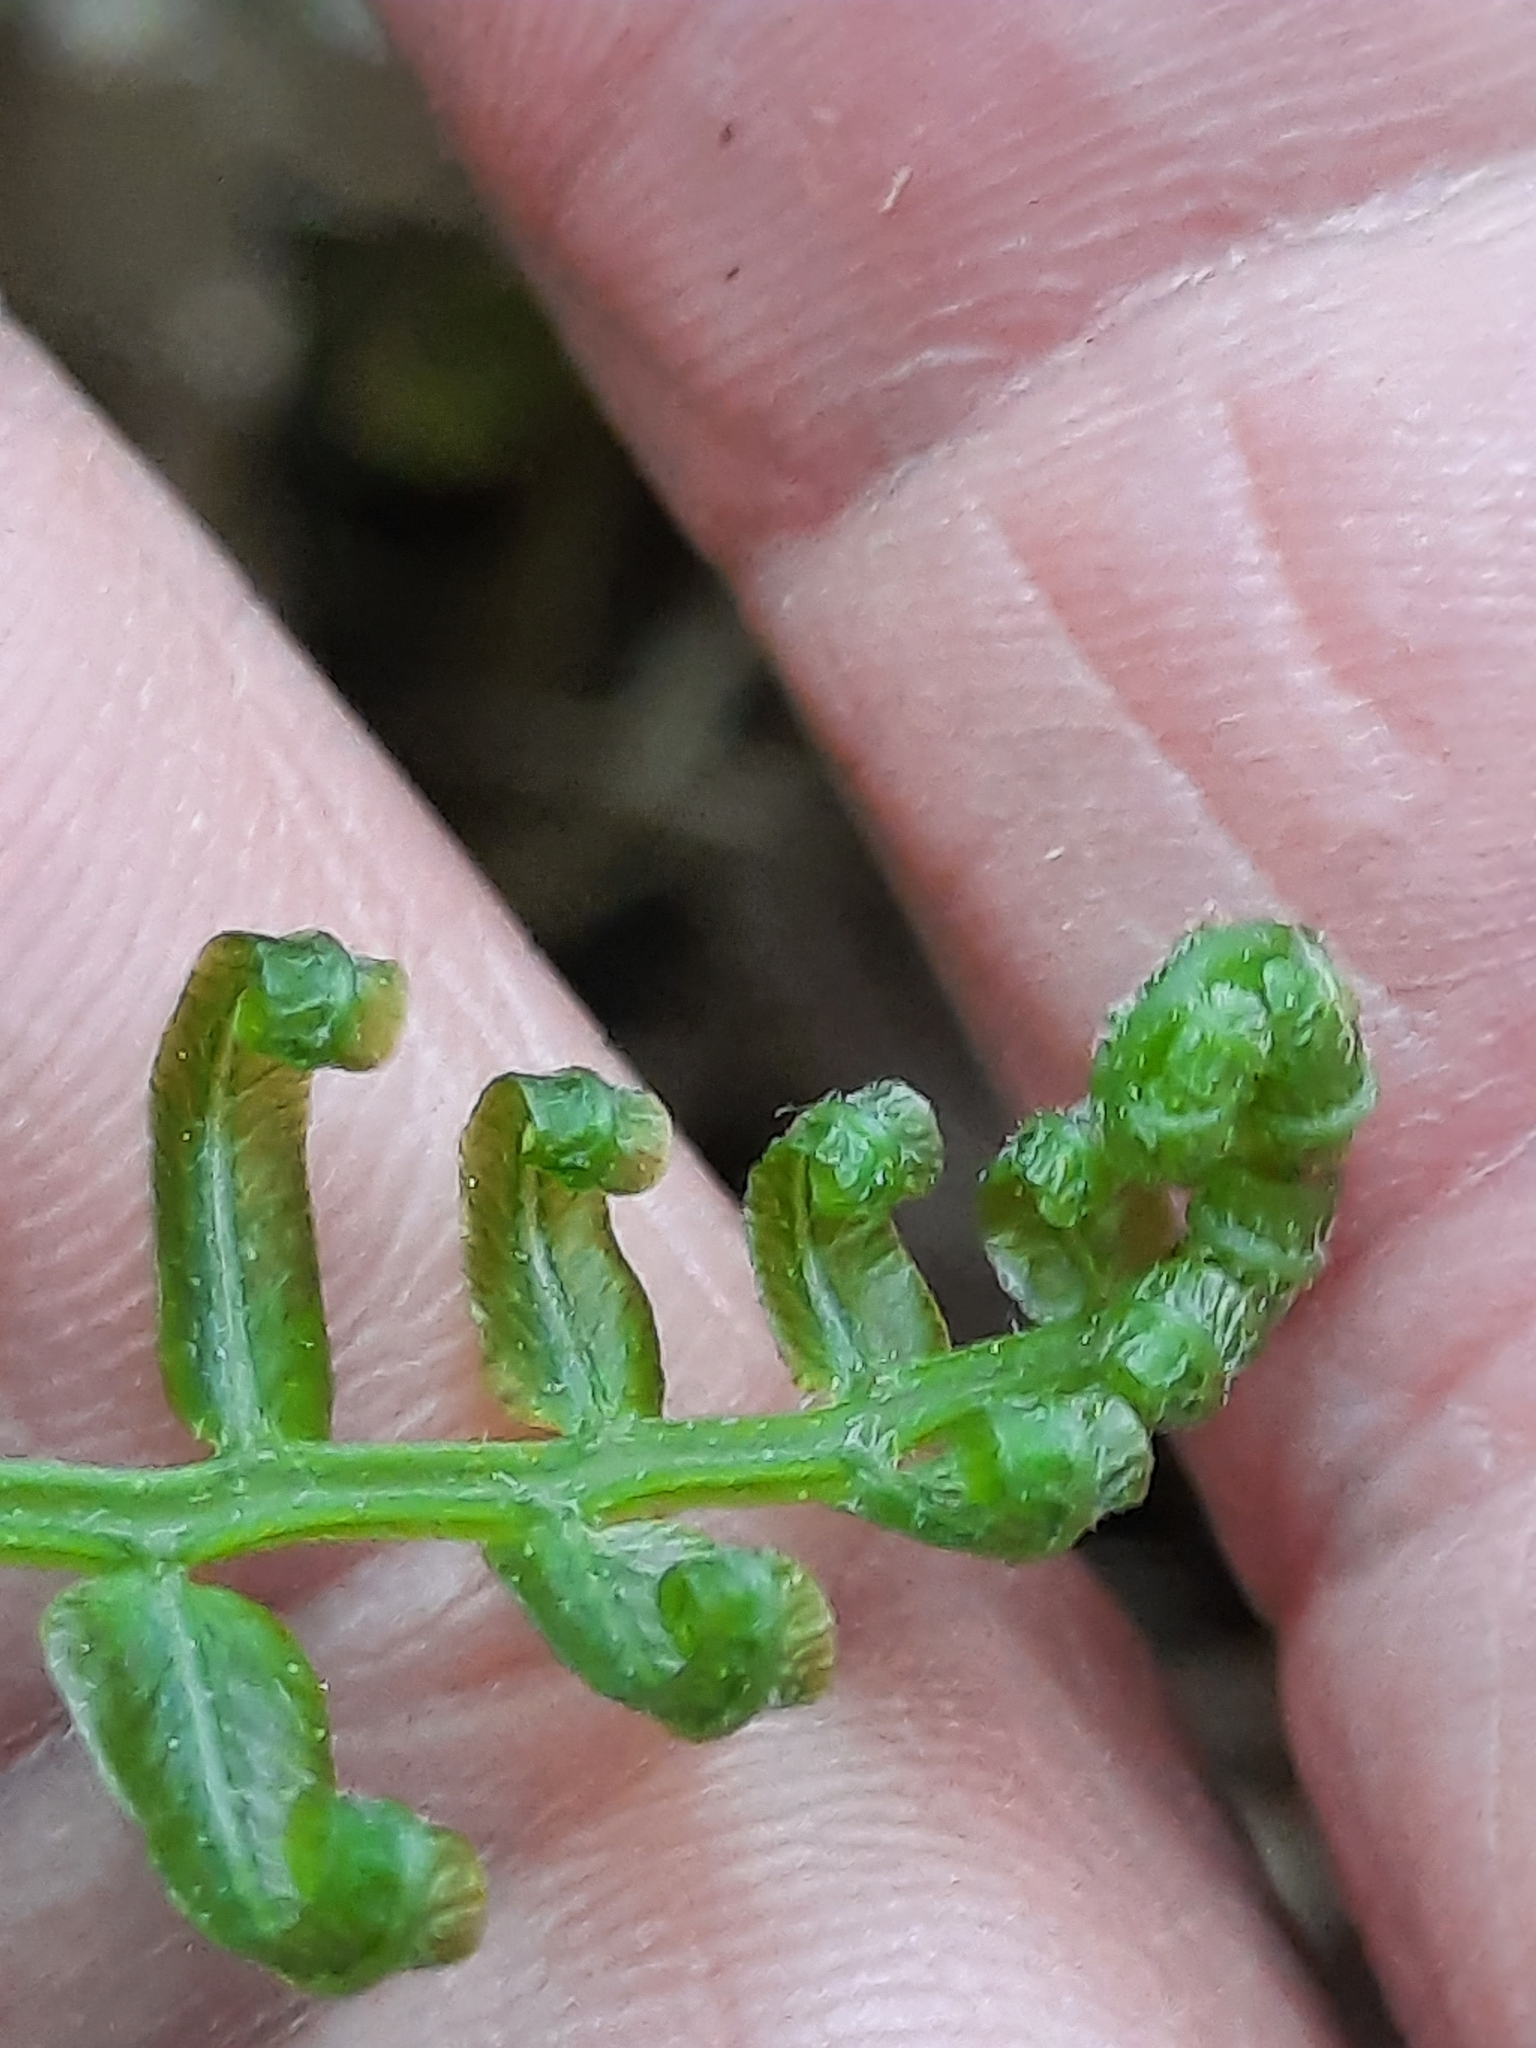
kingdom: Plantae
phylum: Tracheophyta
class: Polypodiopsida
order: Polypodiales
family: Diplaziopsidaceae
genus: Homalosorus
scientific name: Homalosorus pycnocarpos
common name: Glade fern
